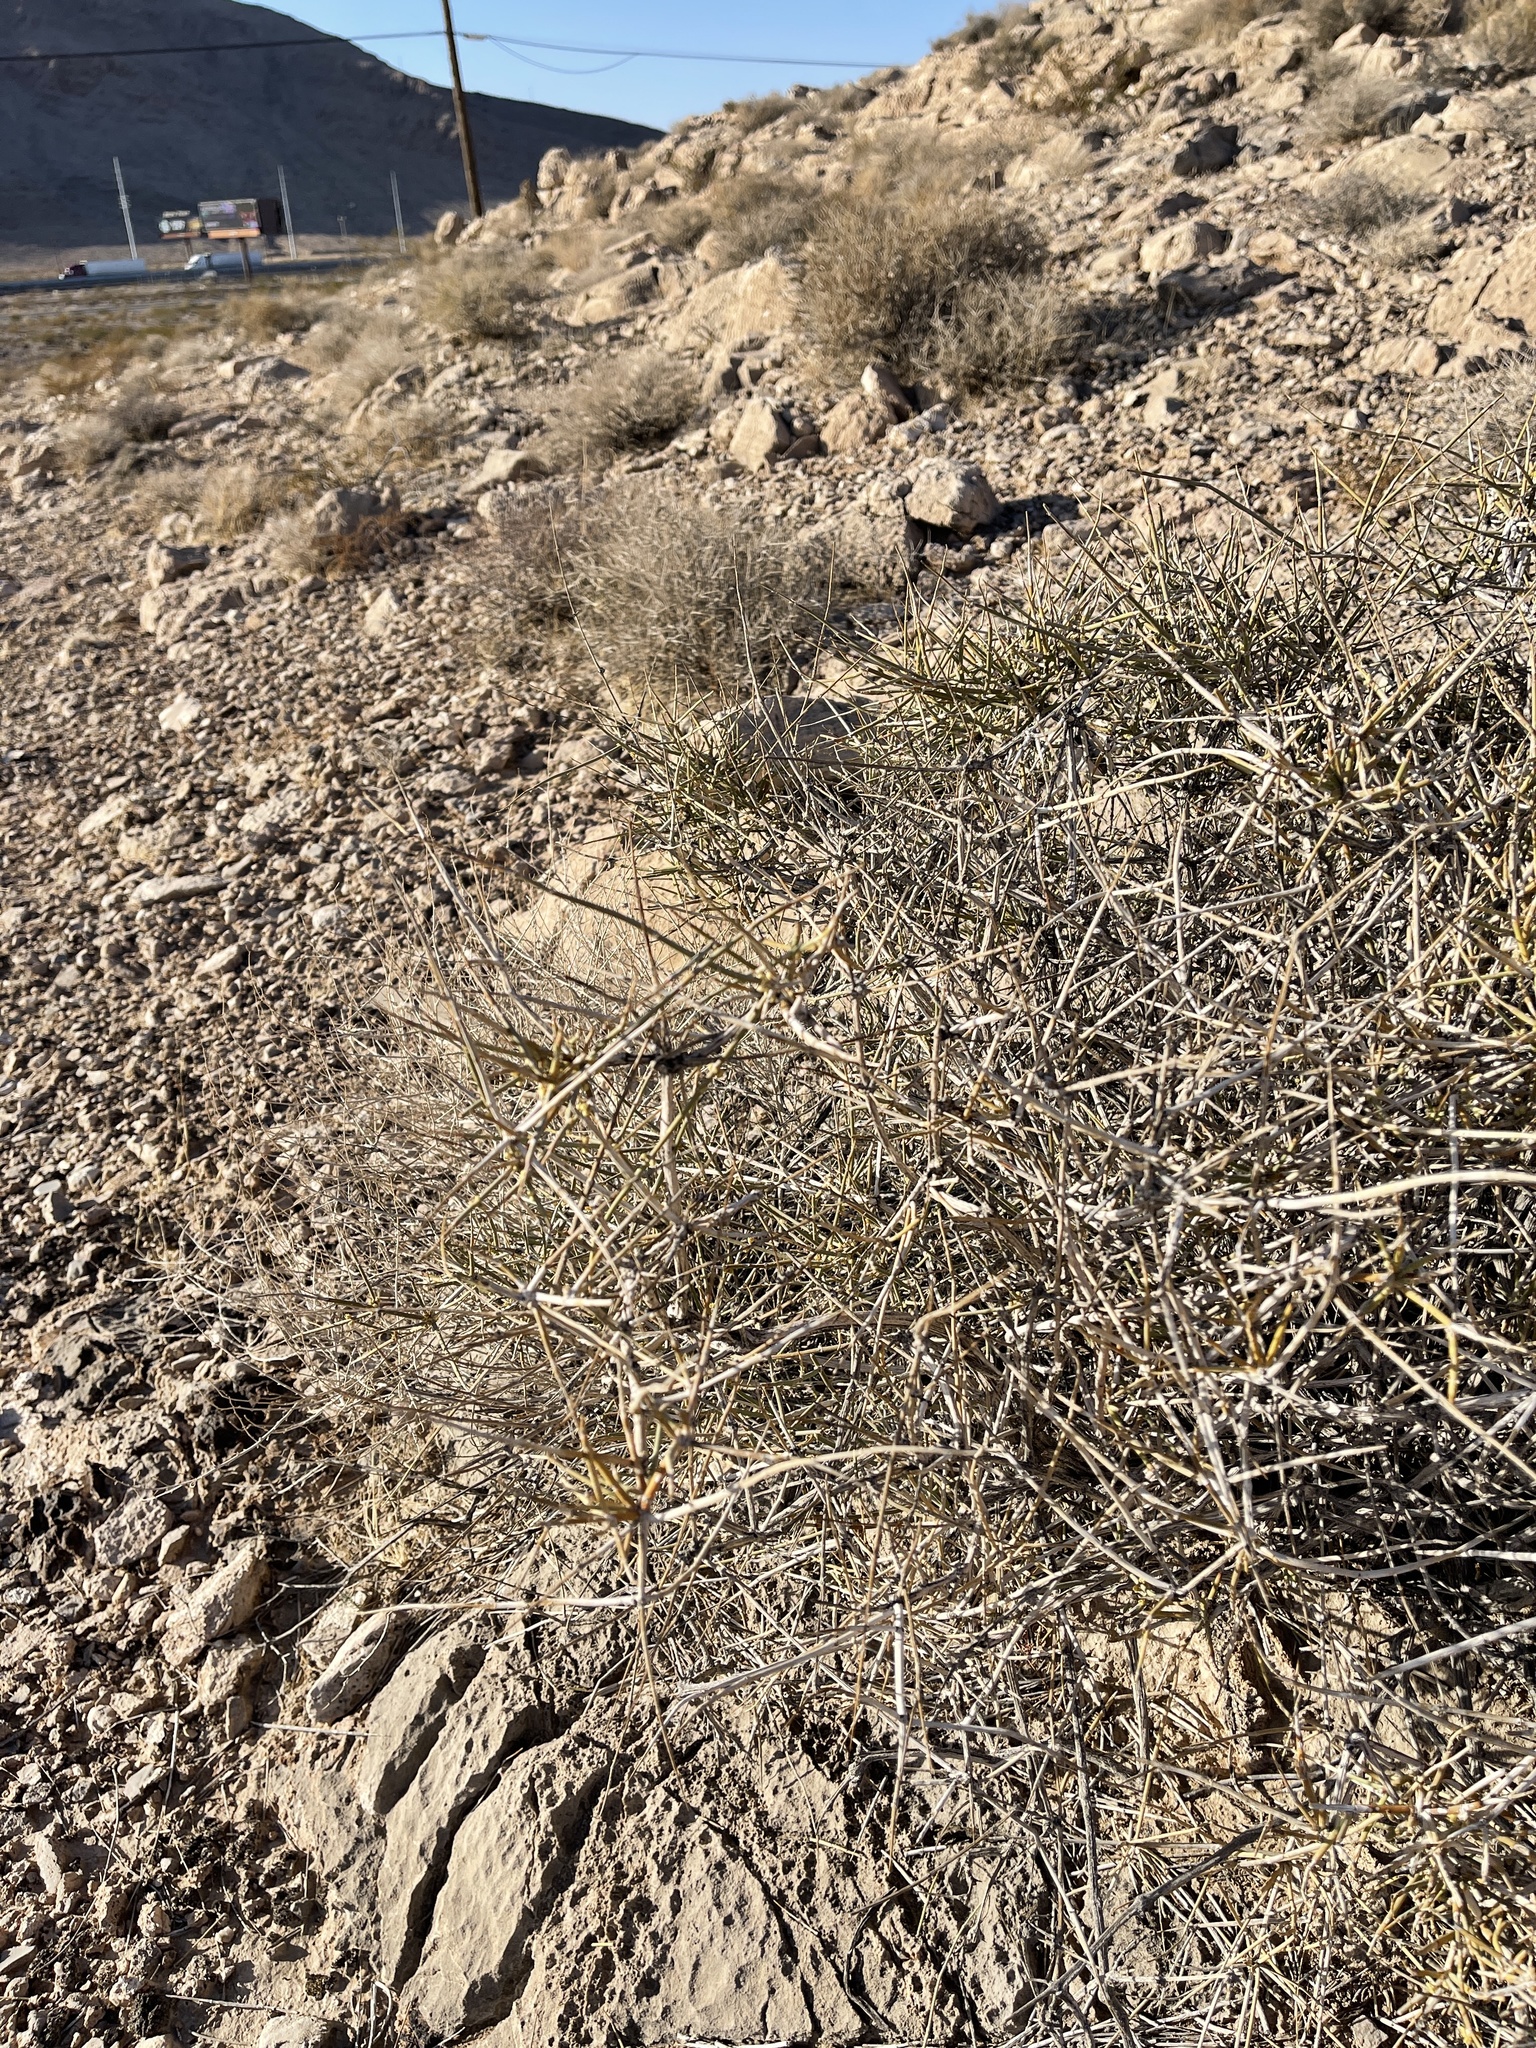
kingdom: Plantae
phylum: Tracheophyta
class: Gnetopsida
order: Ephedrales
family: Ephedraceae
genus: Ephedra
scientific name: Ephedra nevadensis
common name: Gray ephedra
